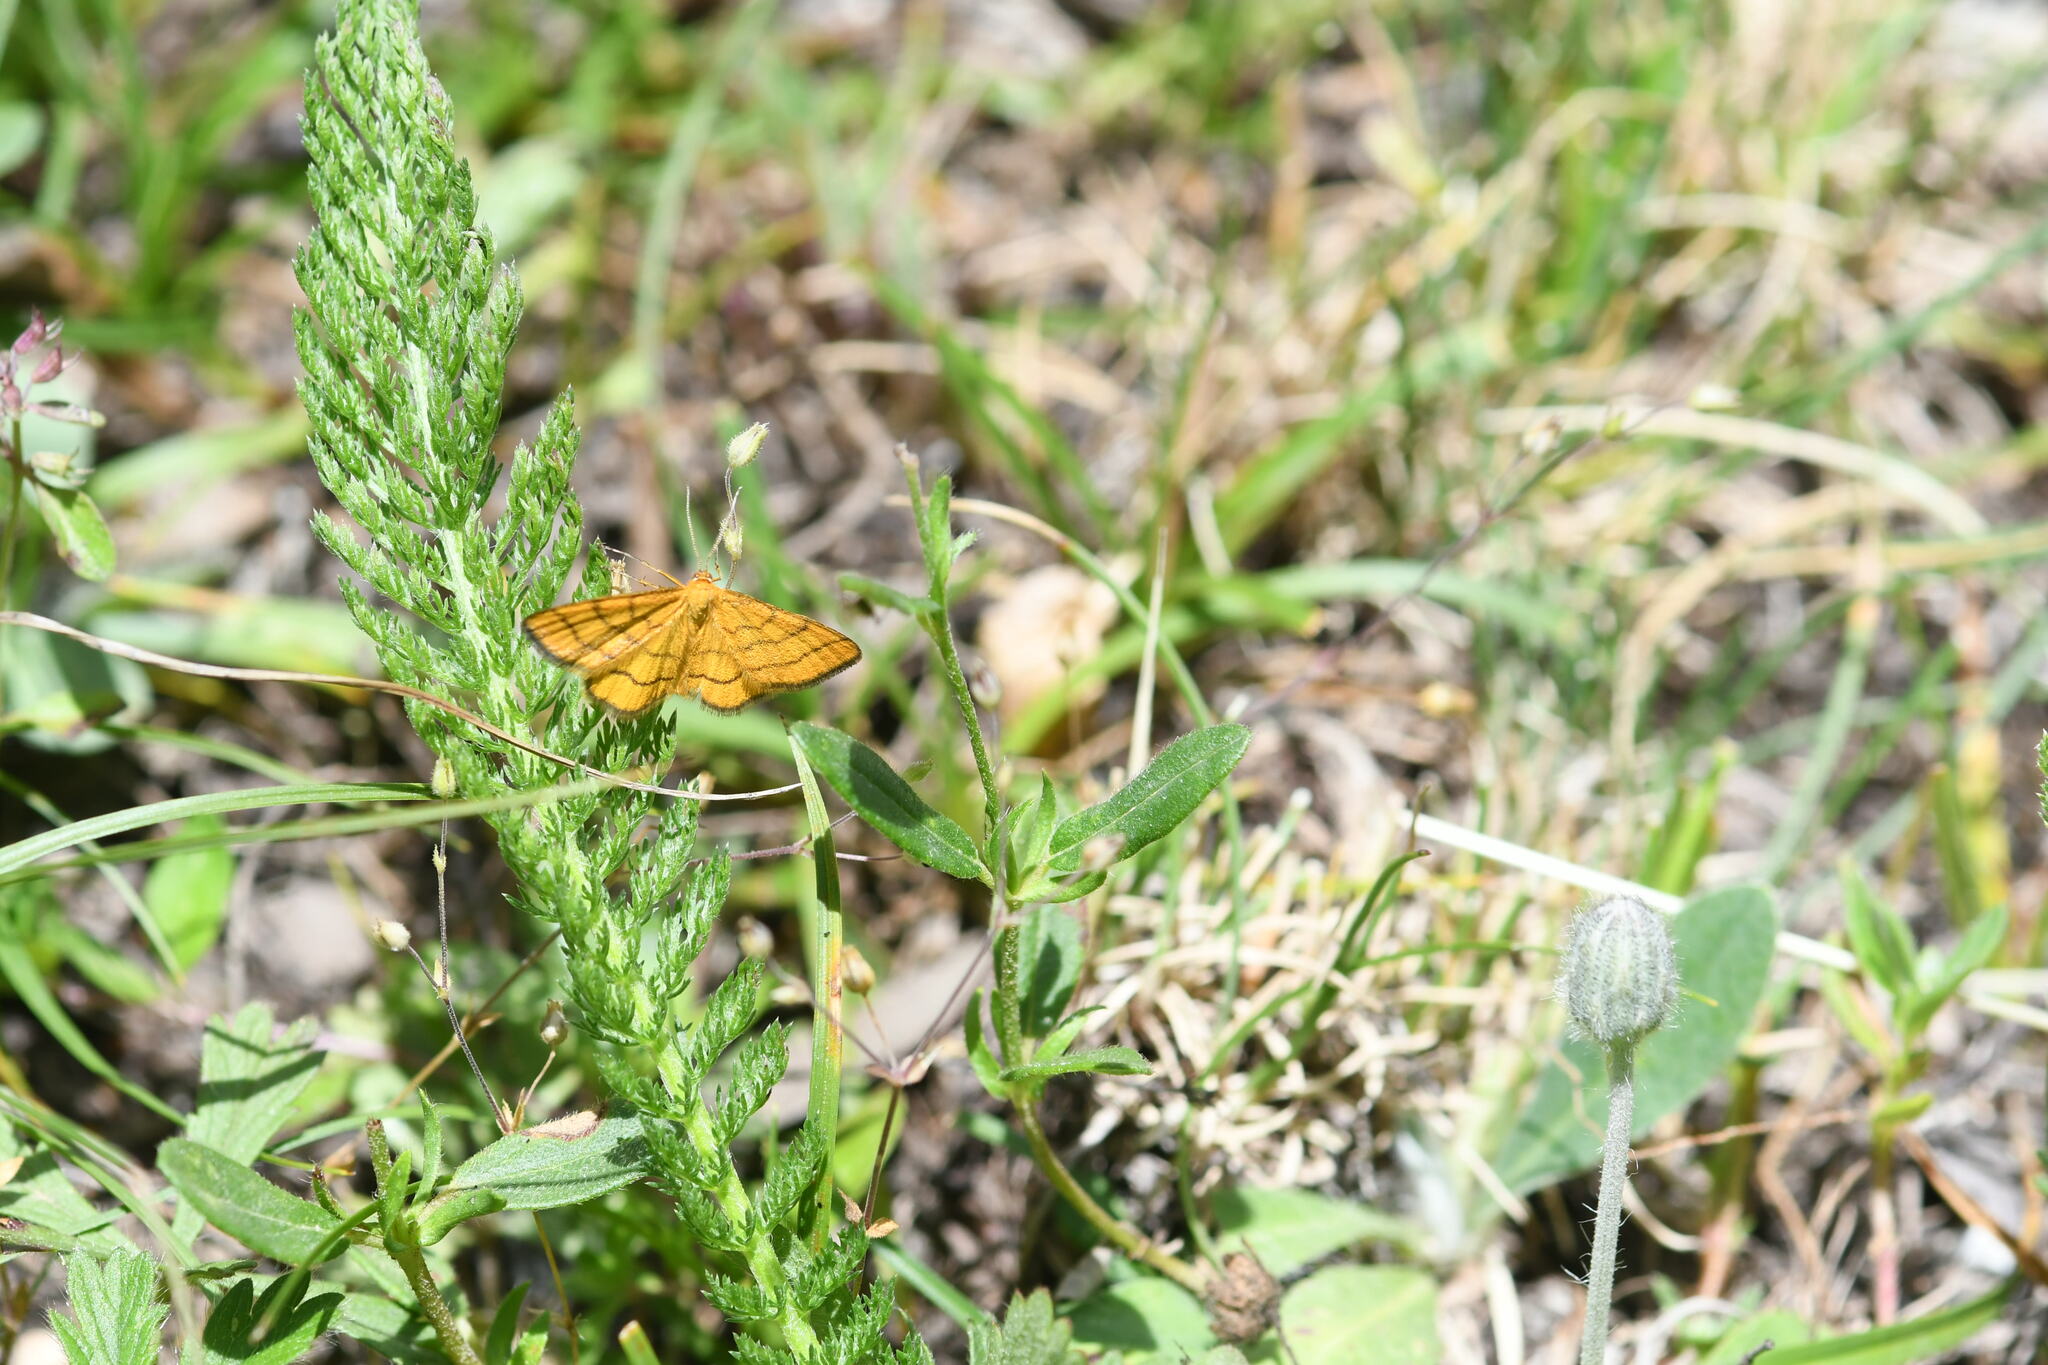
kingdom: Animalia
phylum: Arthropoda
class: Insecta
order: Lepidoptera
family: Geometridae
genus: Idaea
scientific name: Idaea aureolaria
